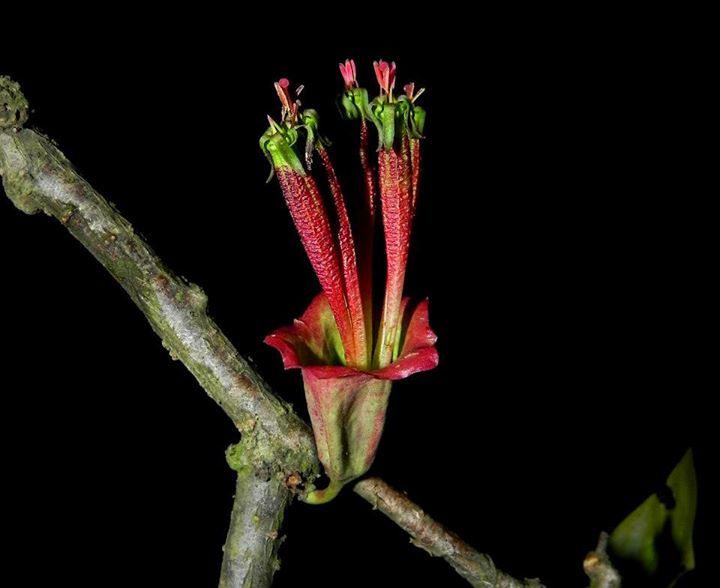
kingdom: Plantae
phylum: Tracheophyta
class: Magnoliopsida
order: Santalales
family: Loranthaceae
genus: Tolypanthus
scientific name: Tolypanthus lagenifer
